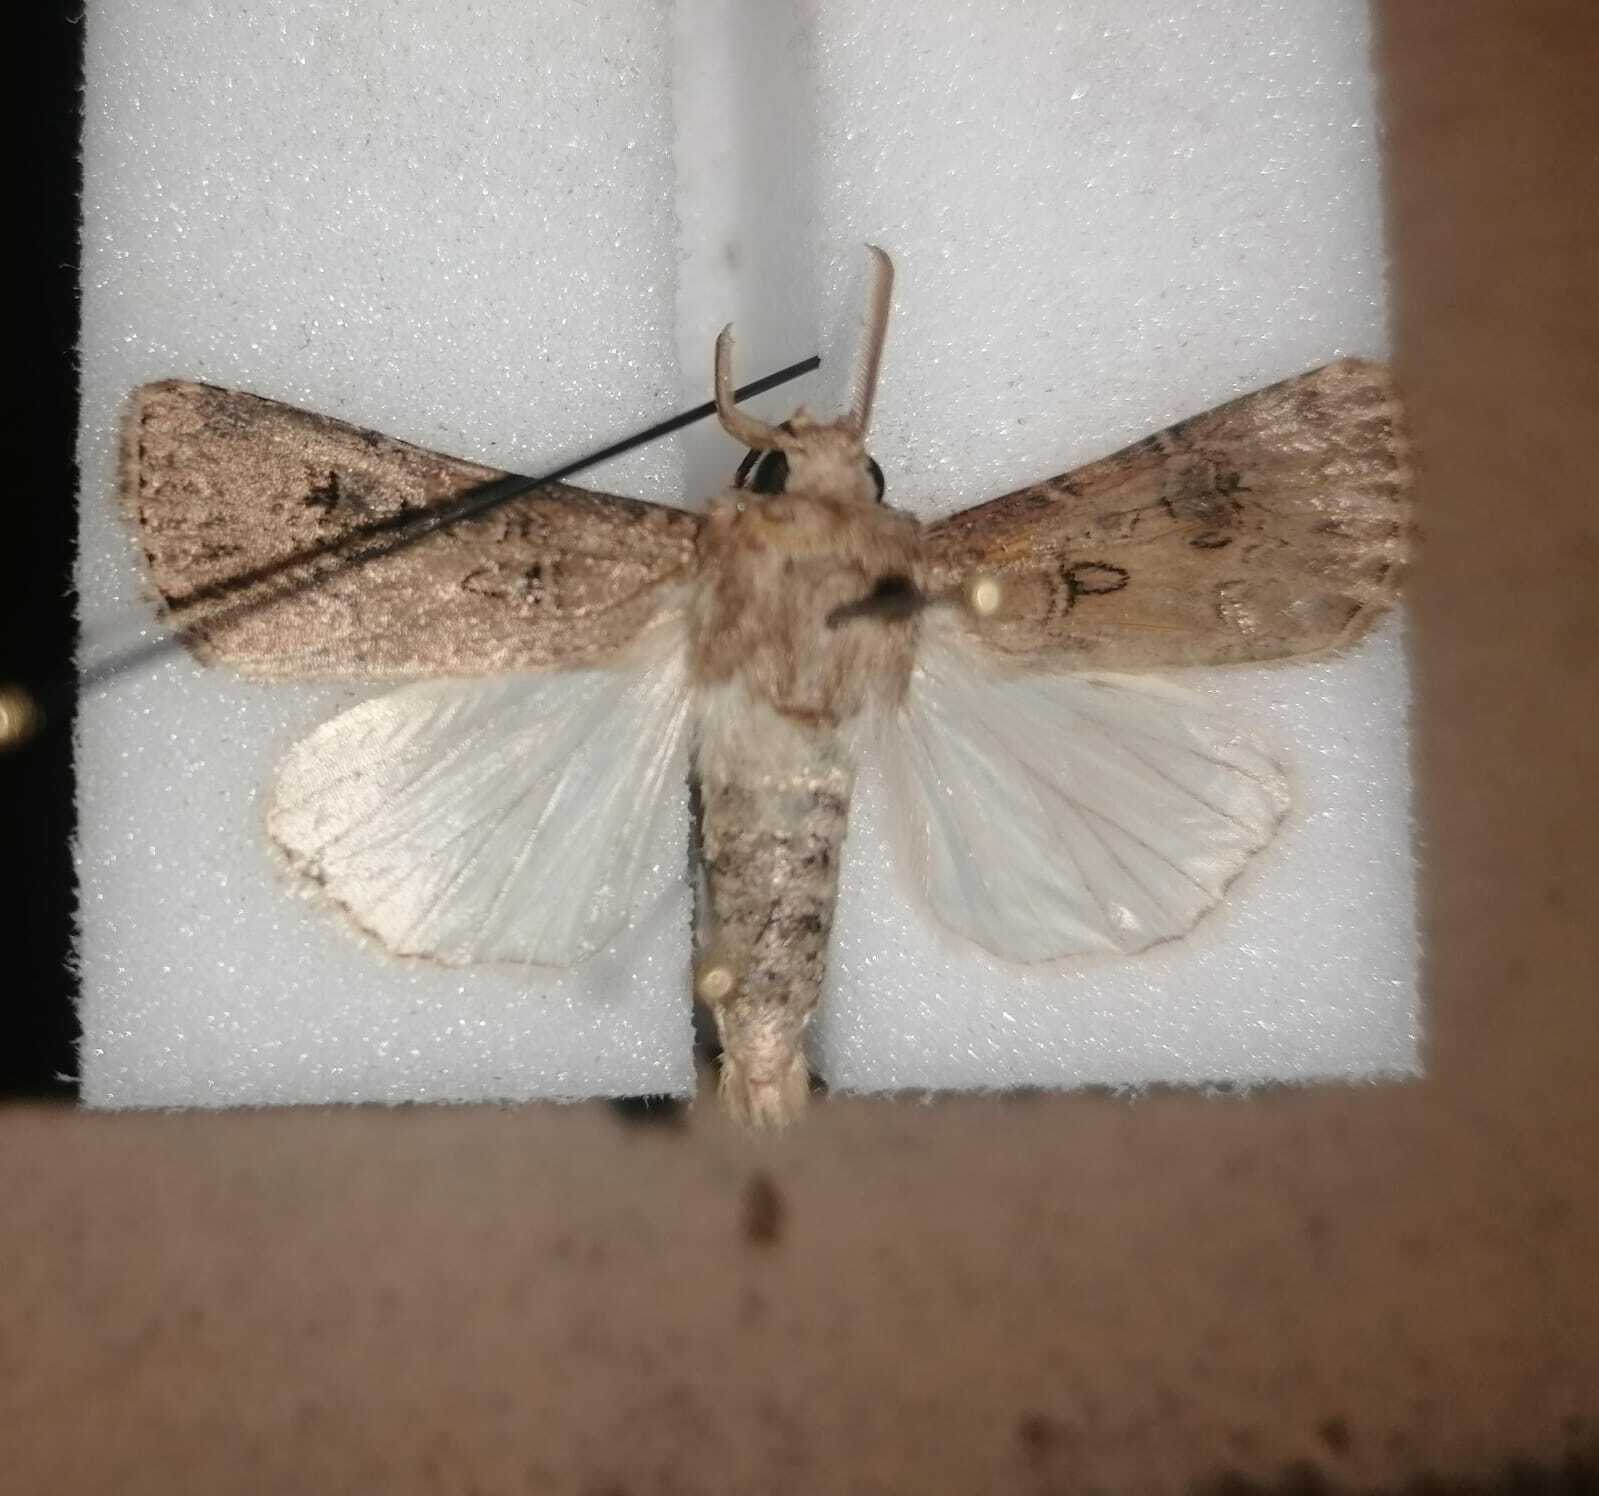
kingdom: Animalia
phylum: Arthropoda
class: Insecta
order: Lepidoptera
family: Noctuidae
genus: Agrotis
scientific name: Agrotis bigramma
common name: Great dart
